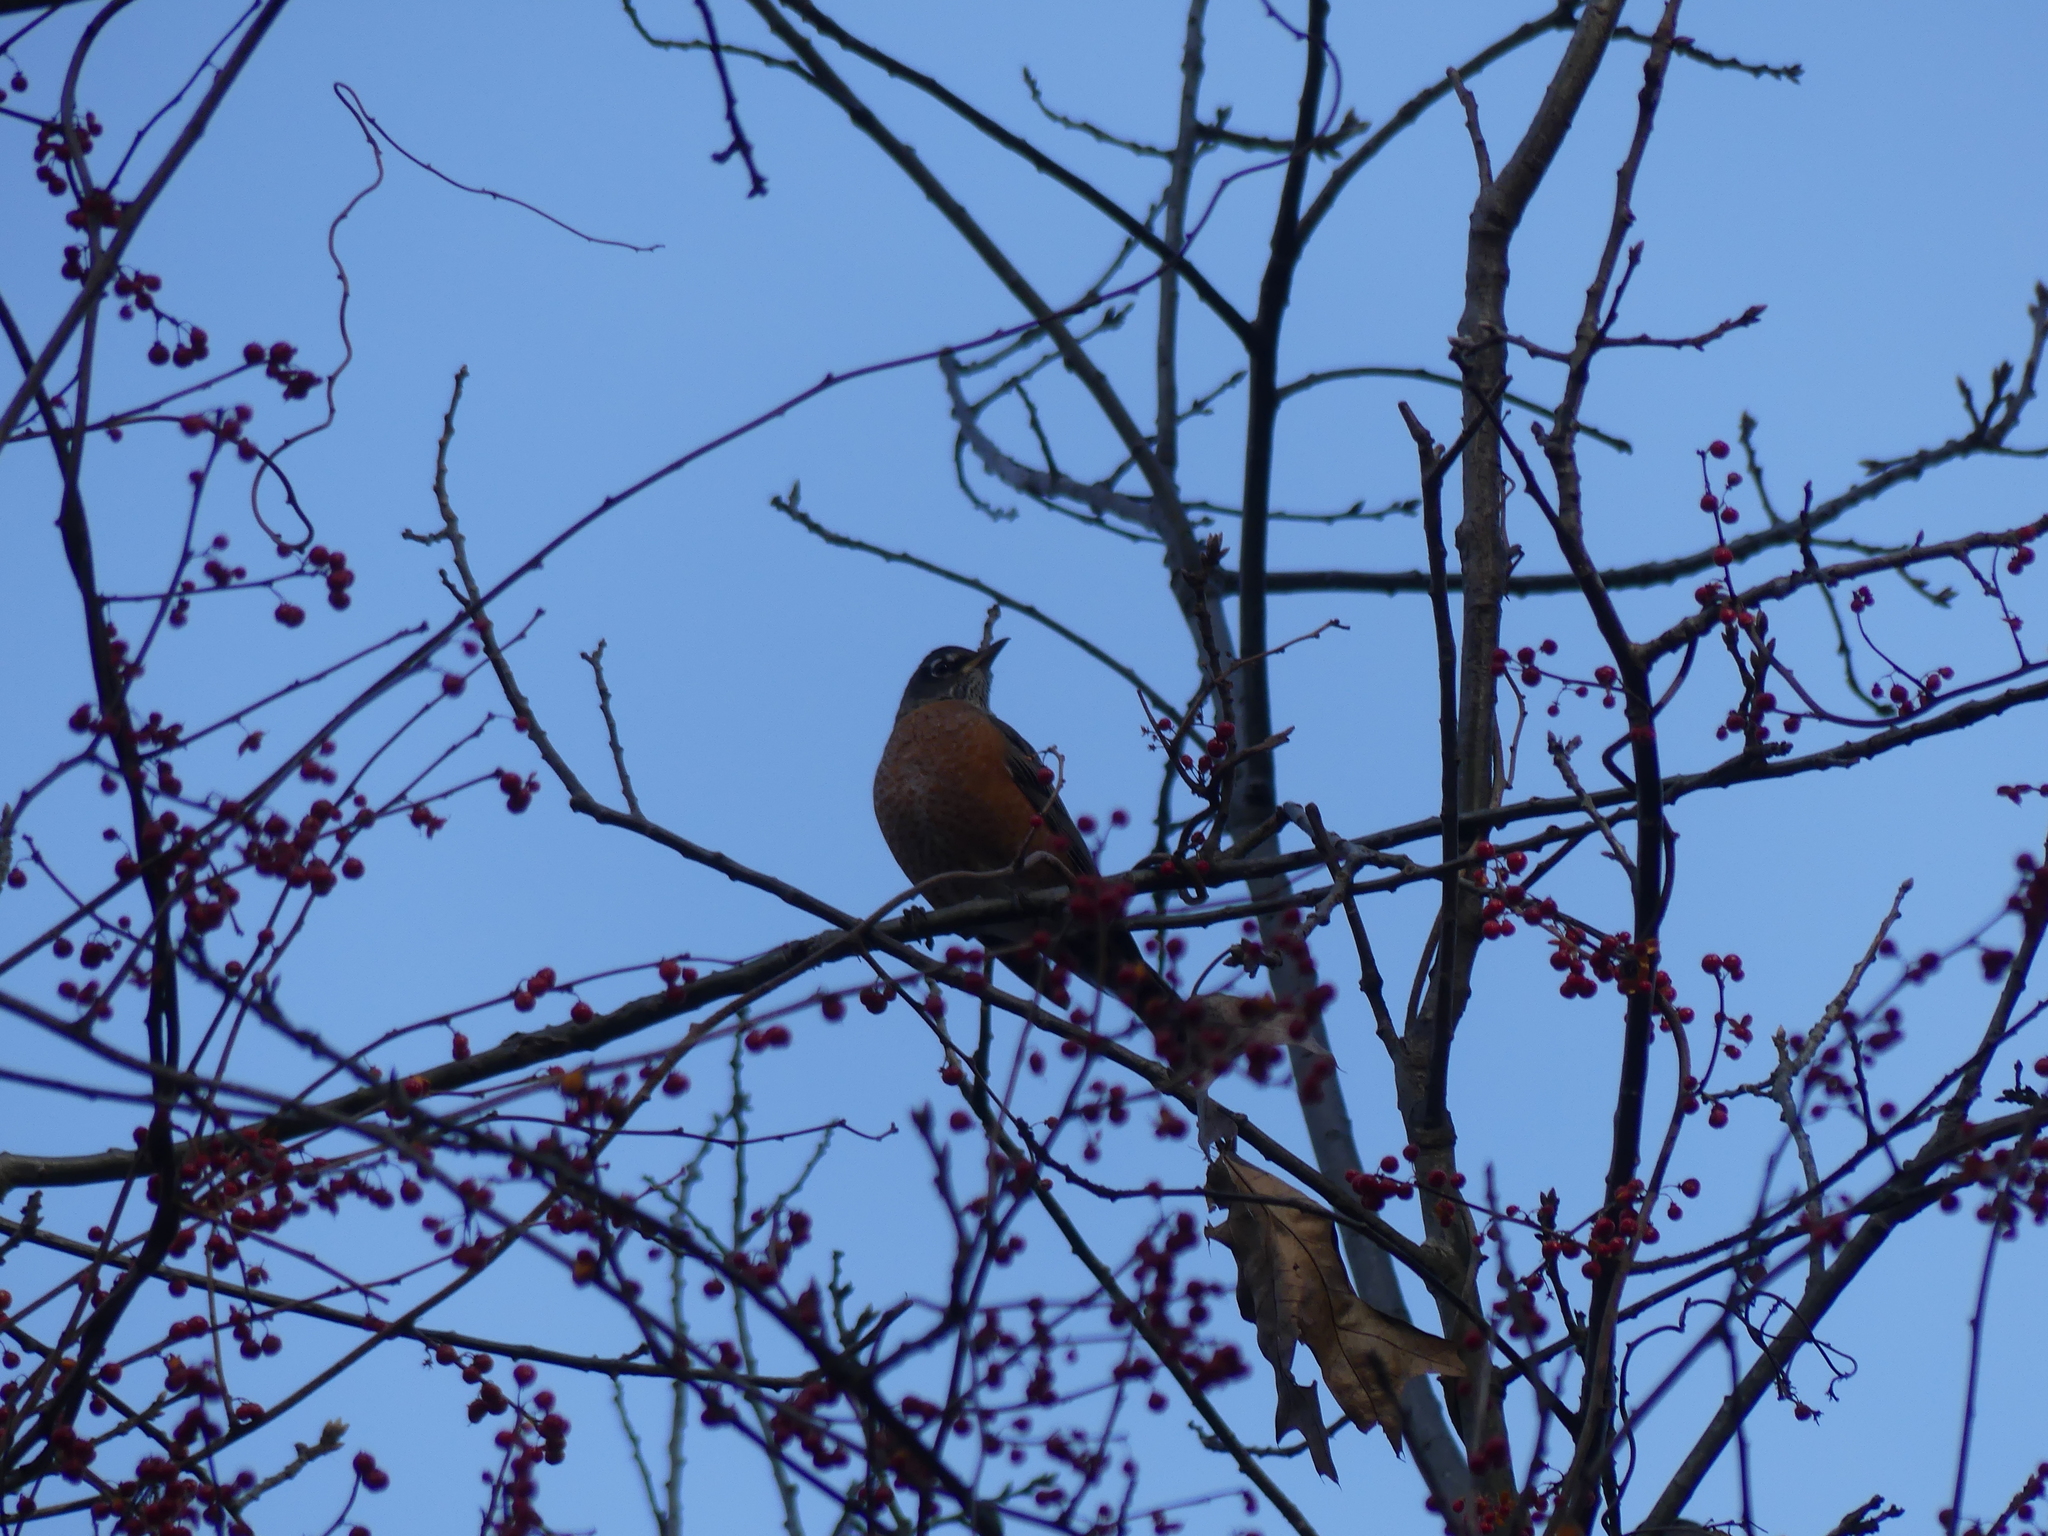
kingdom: Animalia
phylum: Chordata
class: Aves
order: Passeriformes
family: Turdidae
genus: Turdus
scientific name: Turdus migratorius
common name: American robin
